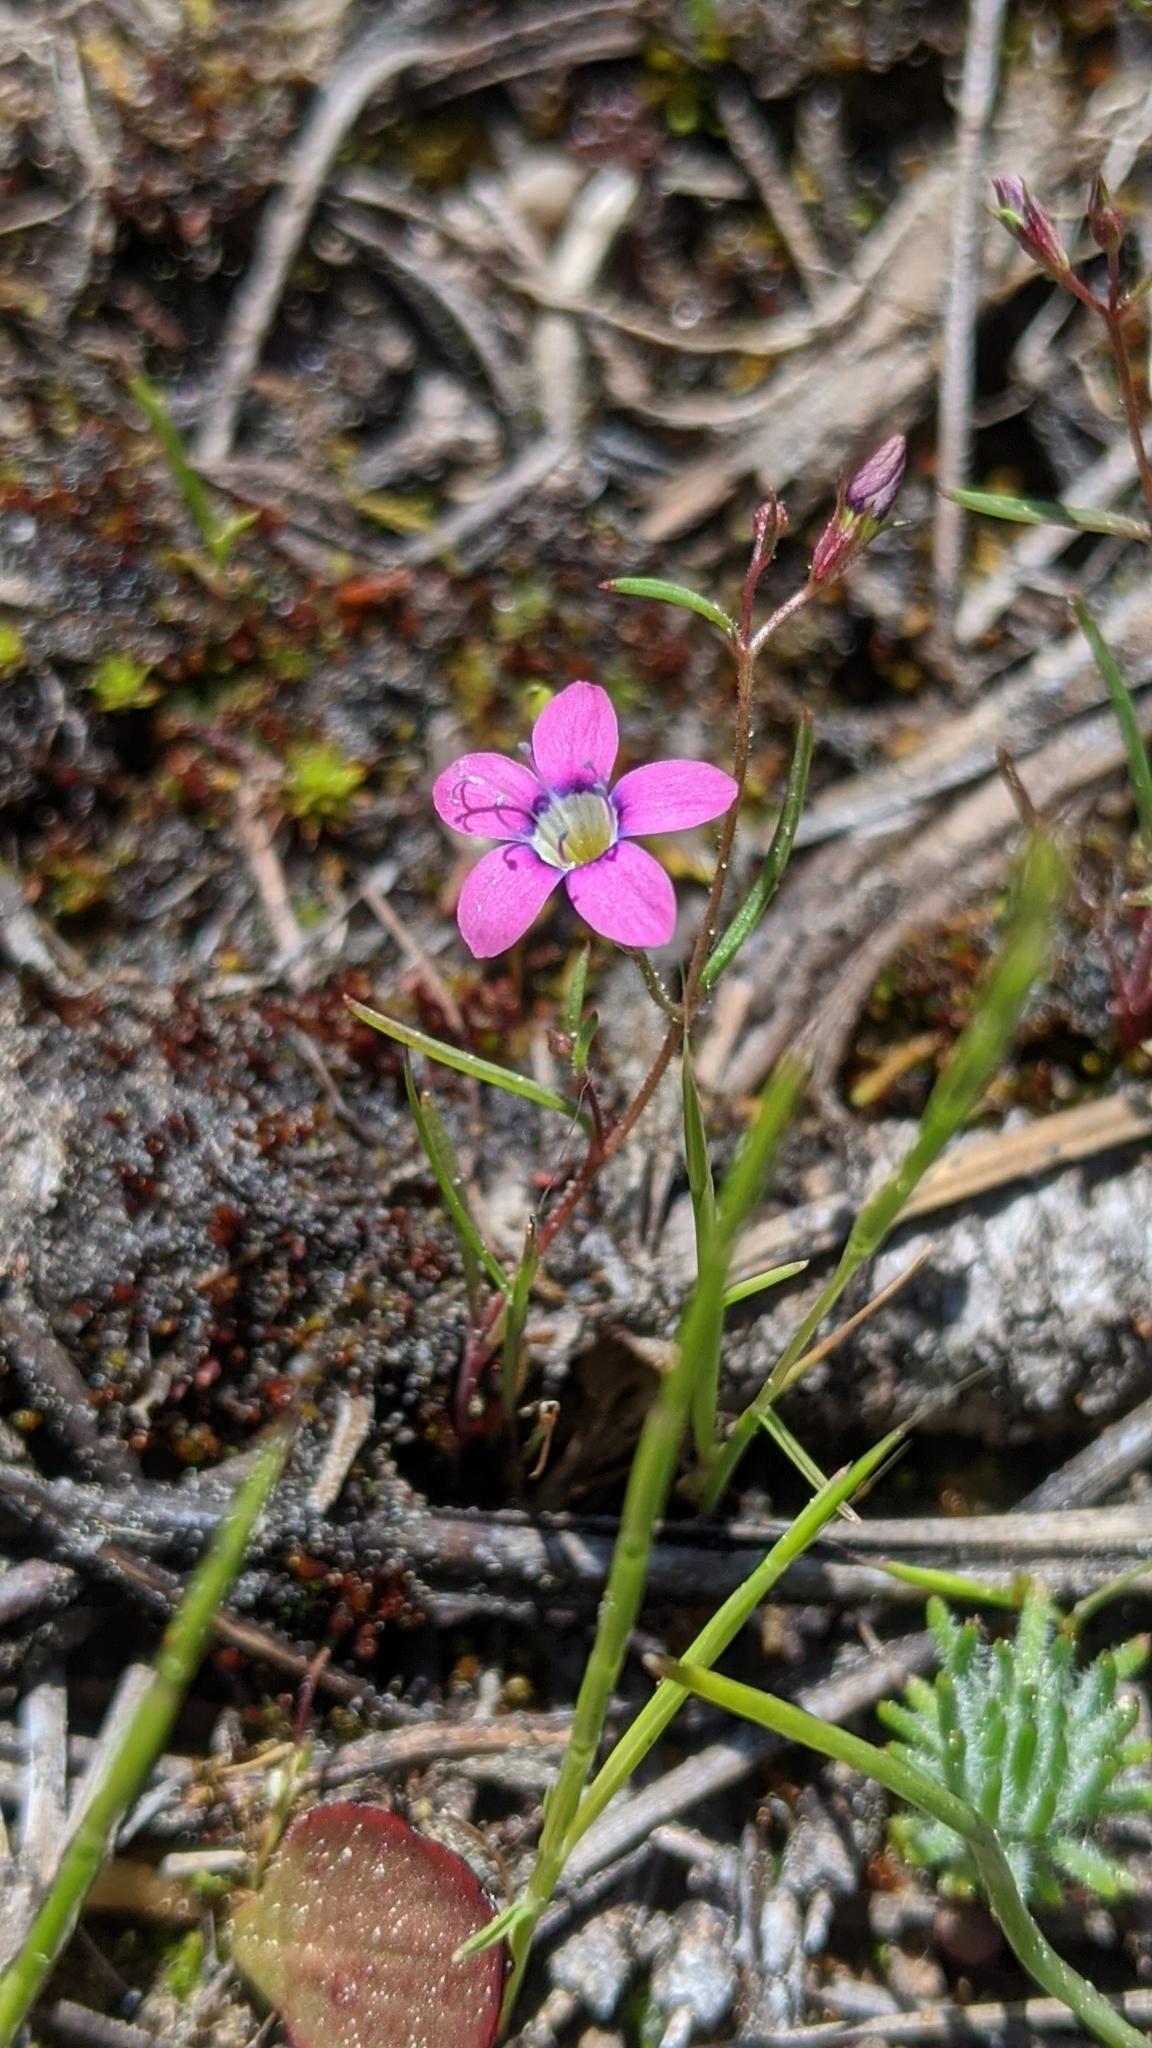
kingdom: Plantae
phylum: Tracheophyta
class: Magnoliopsida
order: Ericales
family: Polemoniaceae
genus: Navarretia
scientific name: Navarretia leptalea
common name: Bridges' pincushionplant
